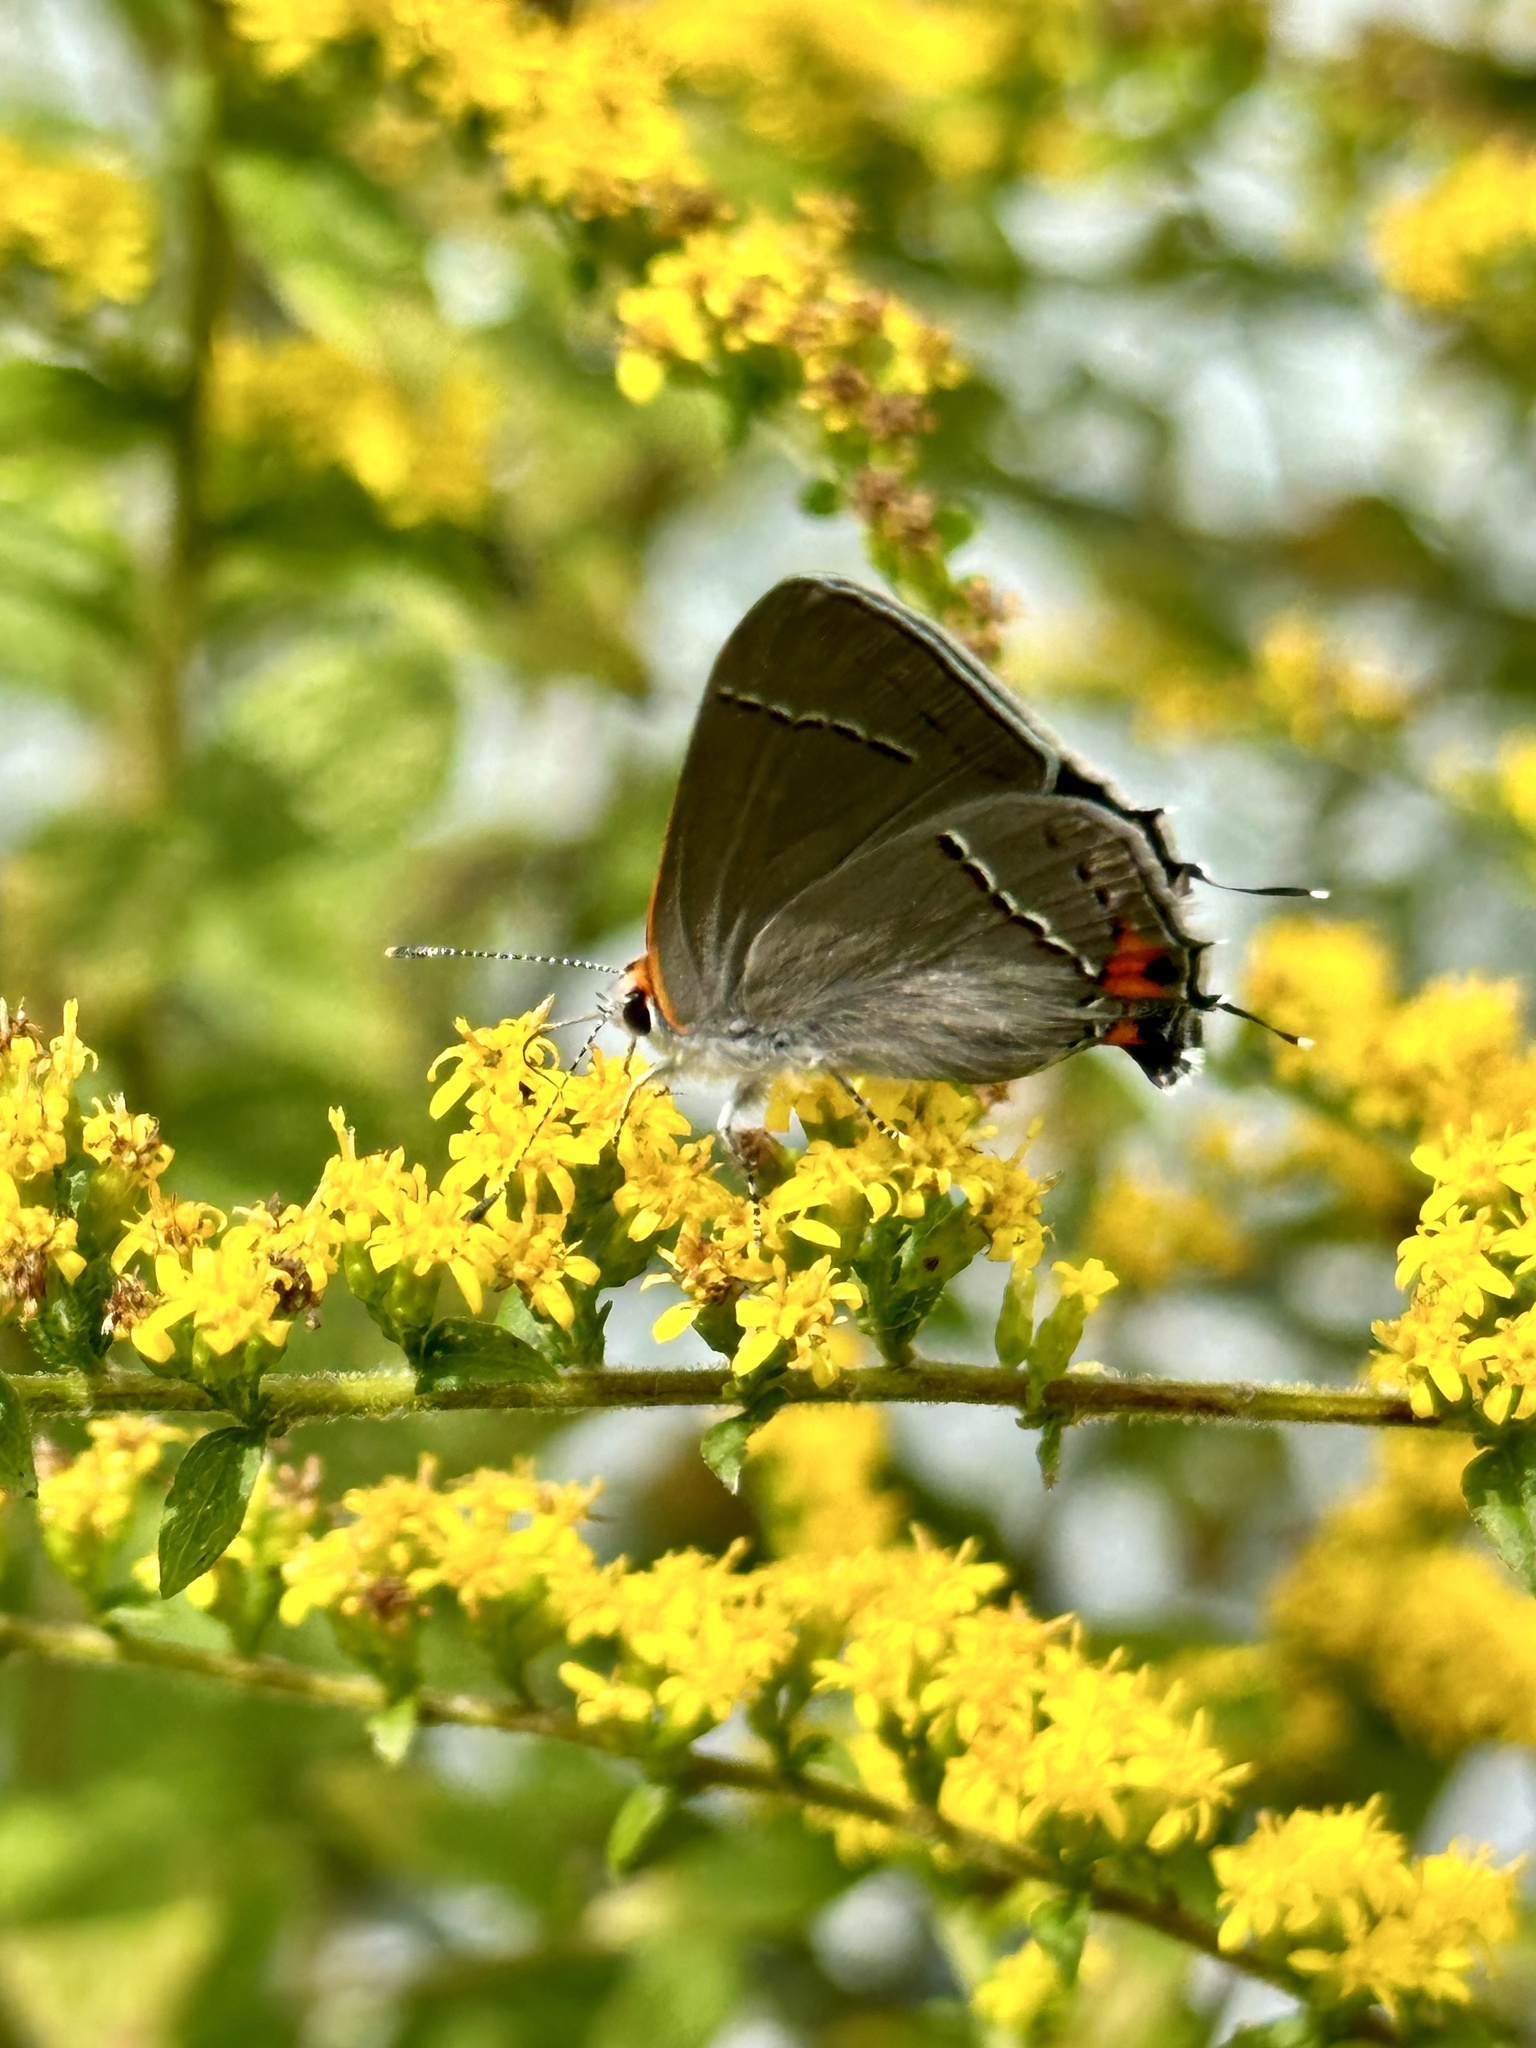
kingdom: Animalia
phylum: Arthropoda
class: Insecta
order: Lepidoptera
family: Lycaenidae
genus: Strymon
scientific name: Strymon melinus
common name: Gray hairstreak
